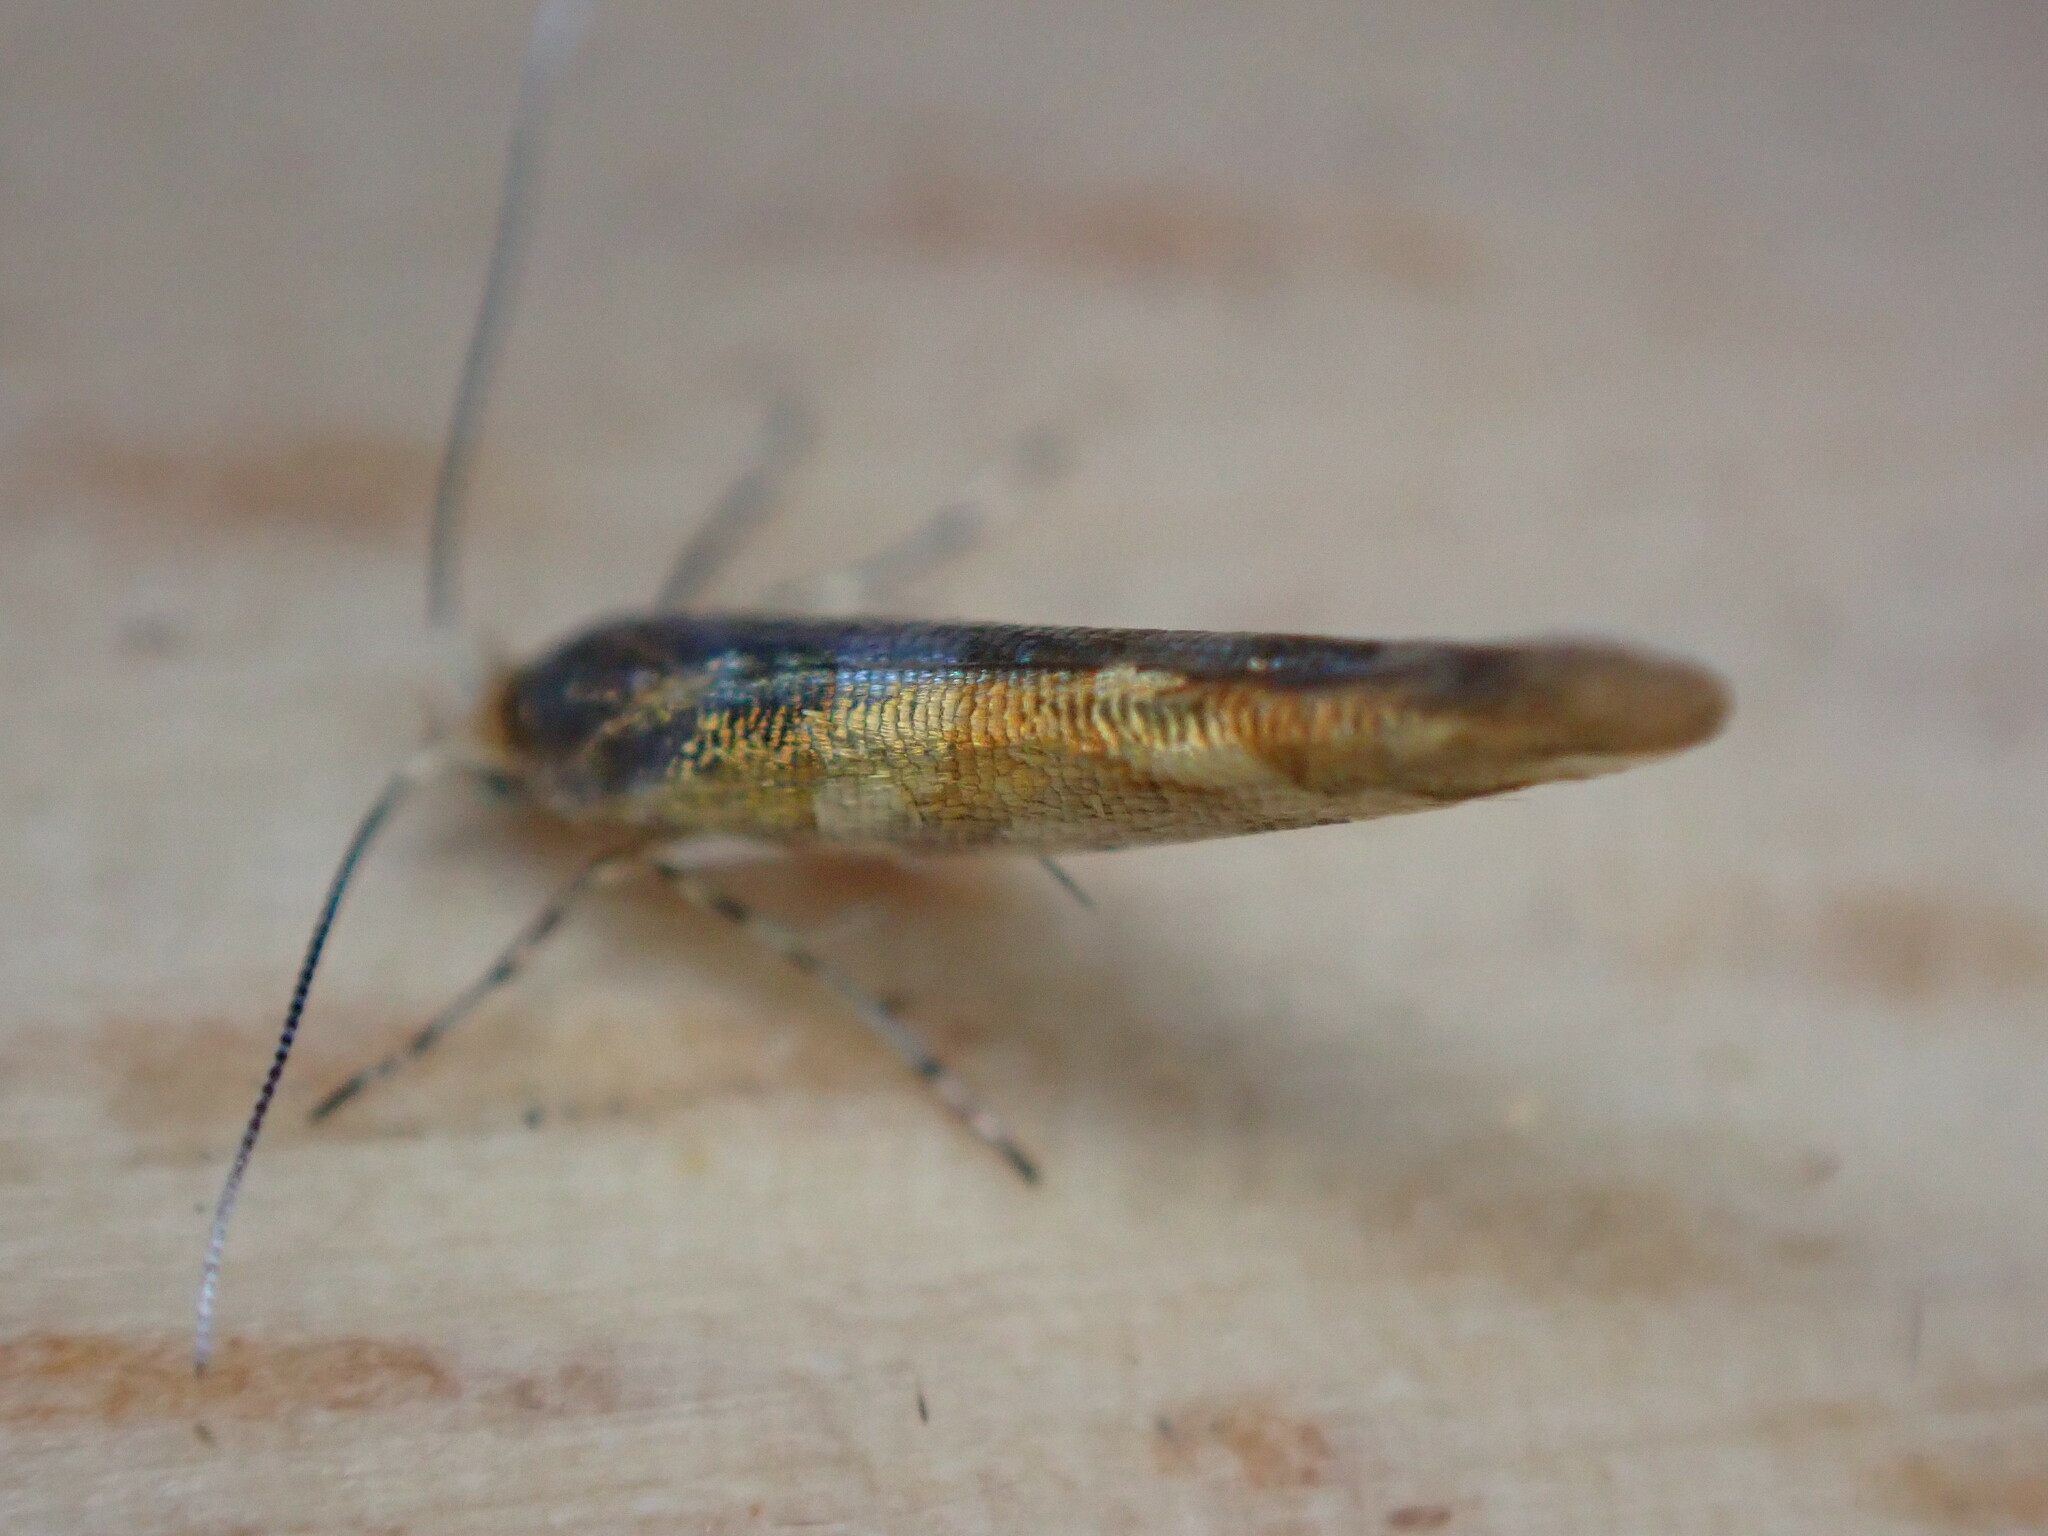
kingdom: Animalia
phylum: Arthropoda
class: Insecta
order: Lepidoptera
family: Argyresthiidae
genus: Argyresthia
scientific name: Argyresthia goedartella
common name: Golden argent
